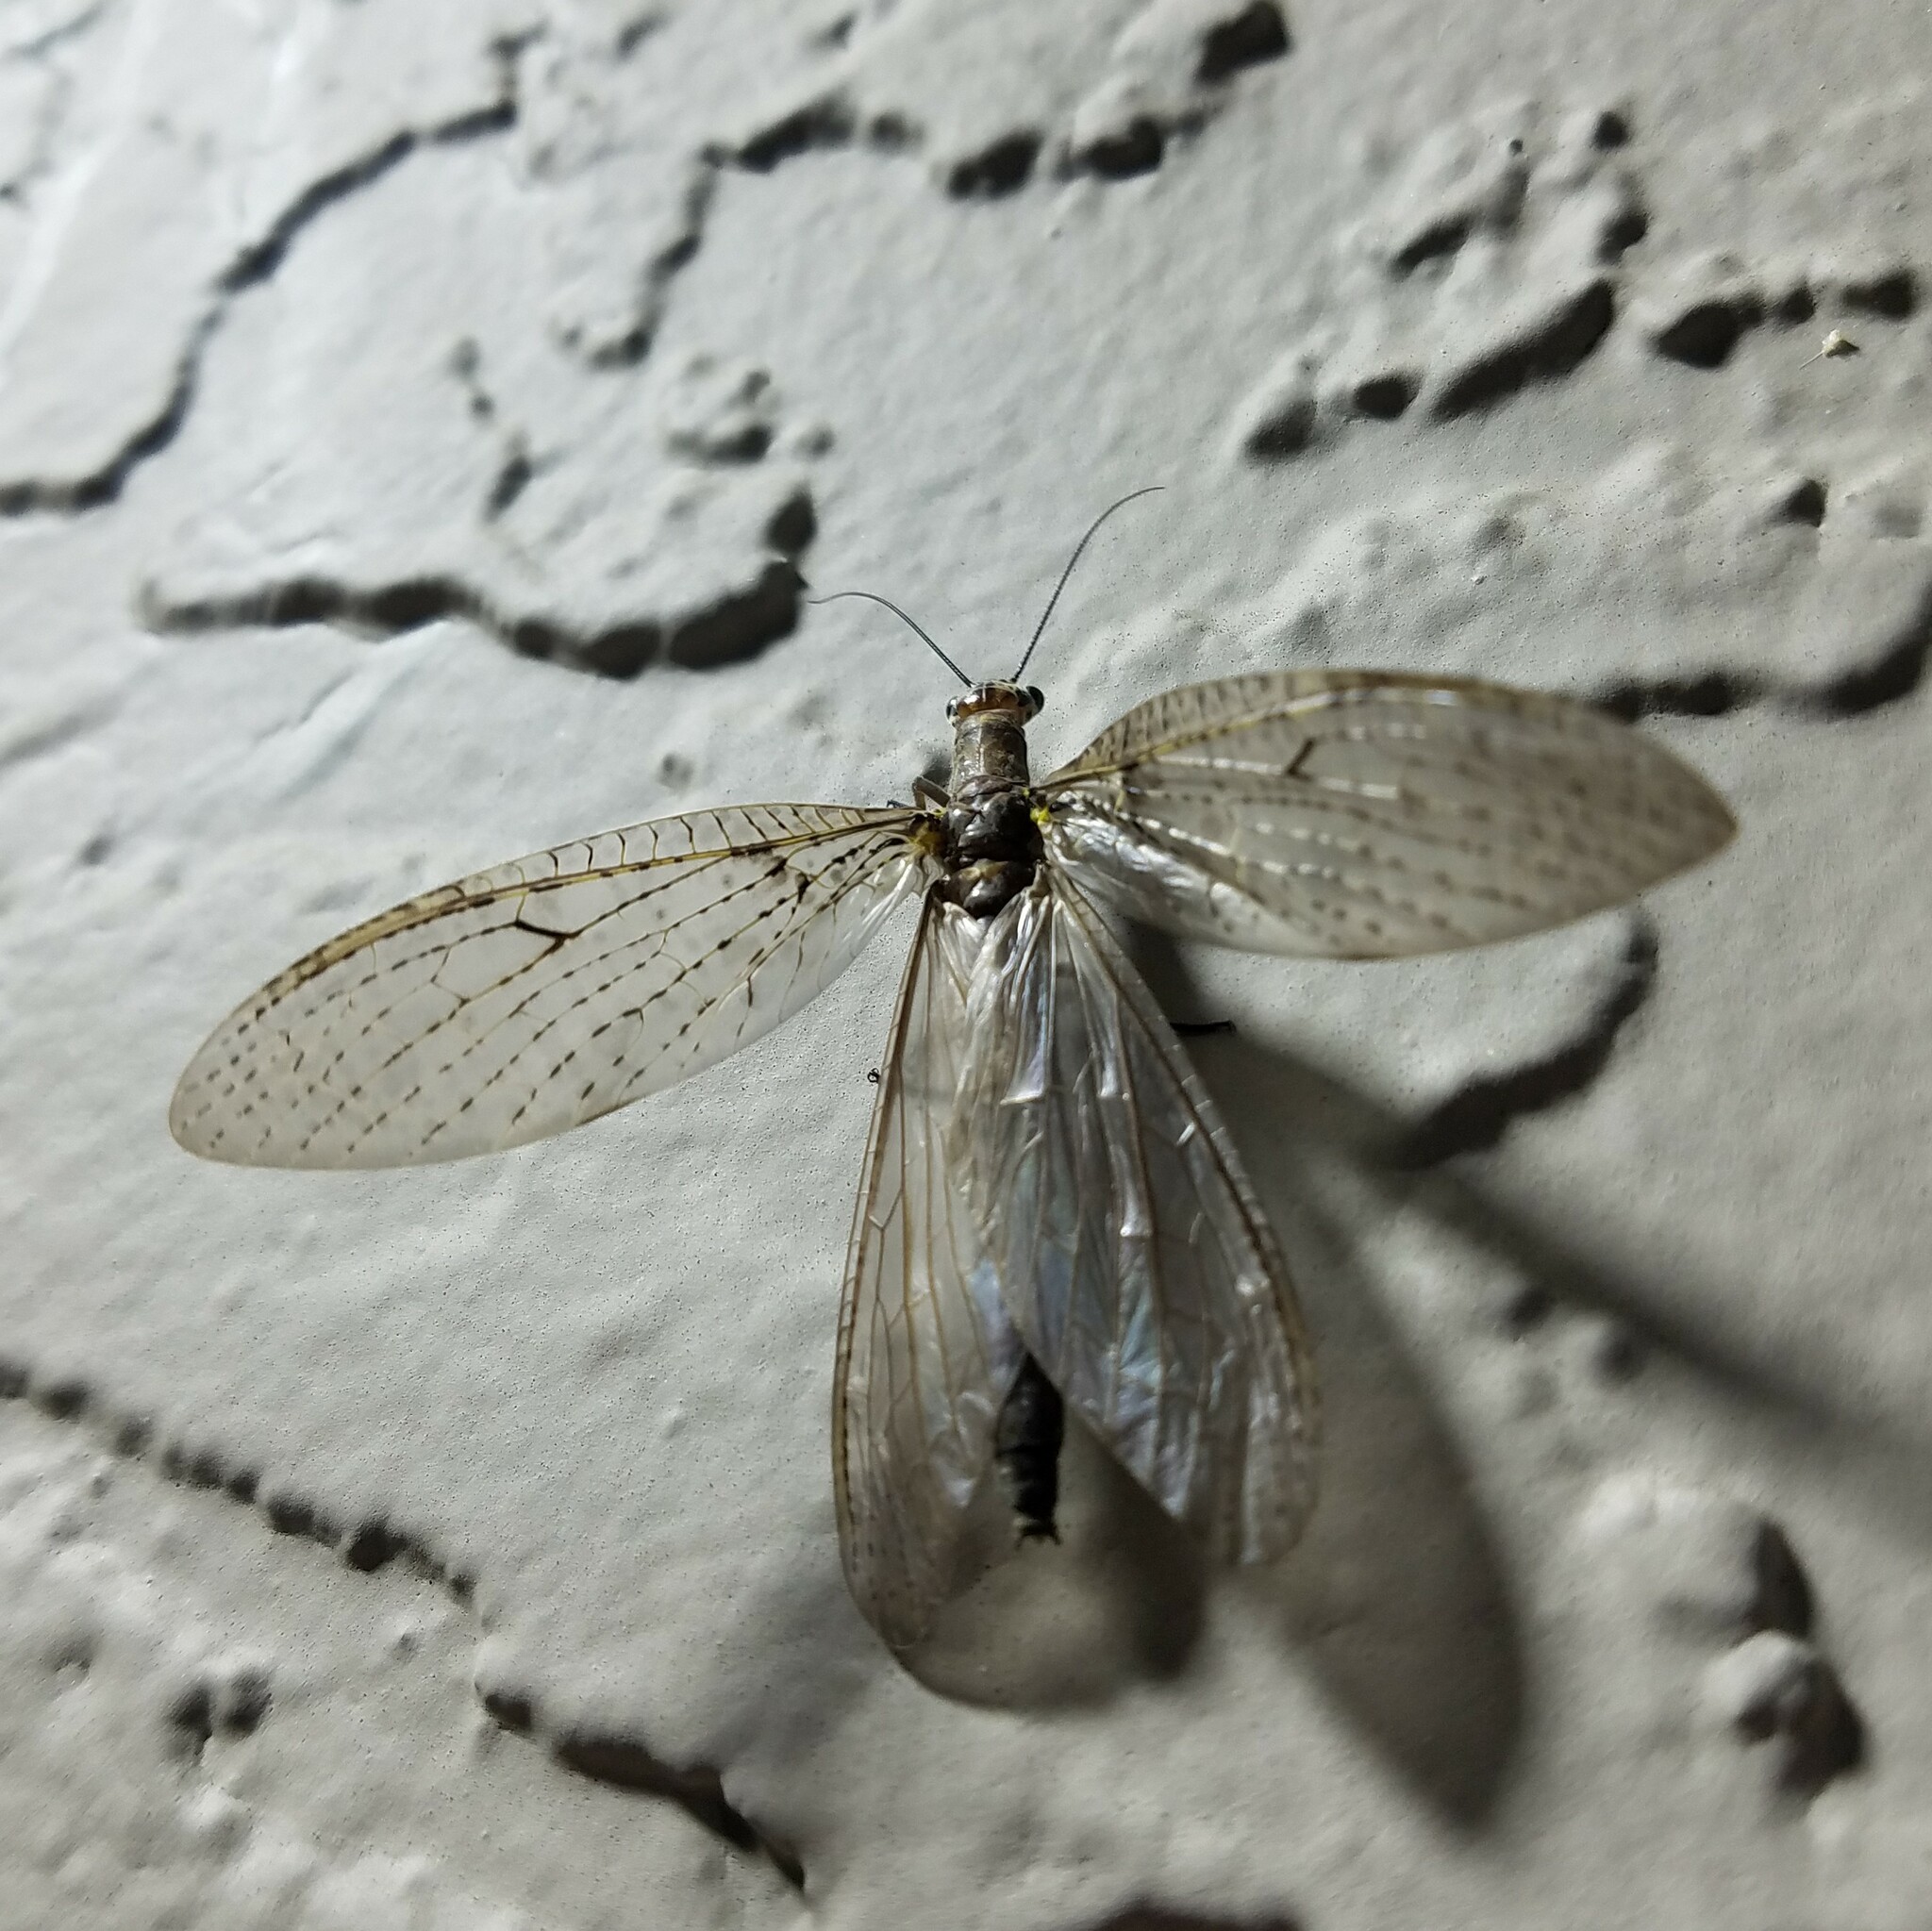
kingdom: Animalia
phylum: Arthropoda
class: Insecta
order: Megaloptera
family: Corydalidae
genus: Chauliodes
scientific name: Chauliodes rastricornis
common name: Spring fishfly
